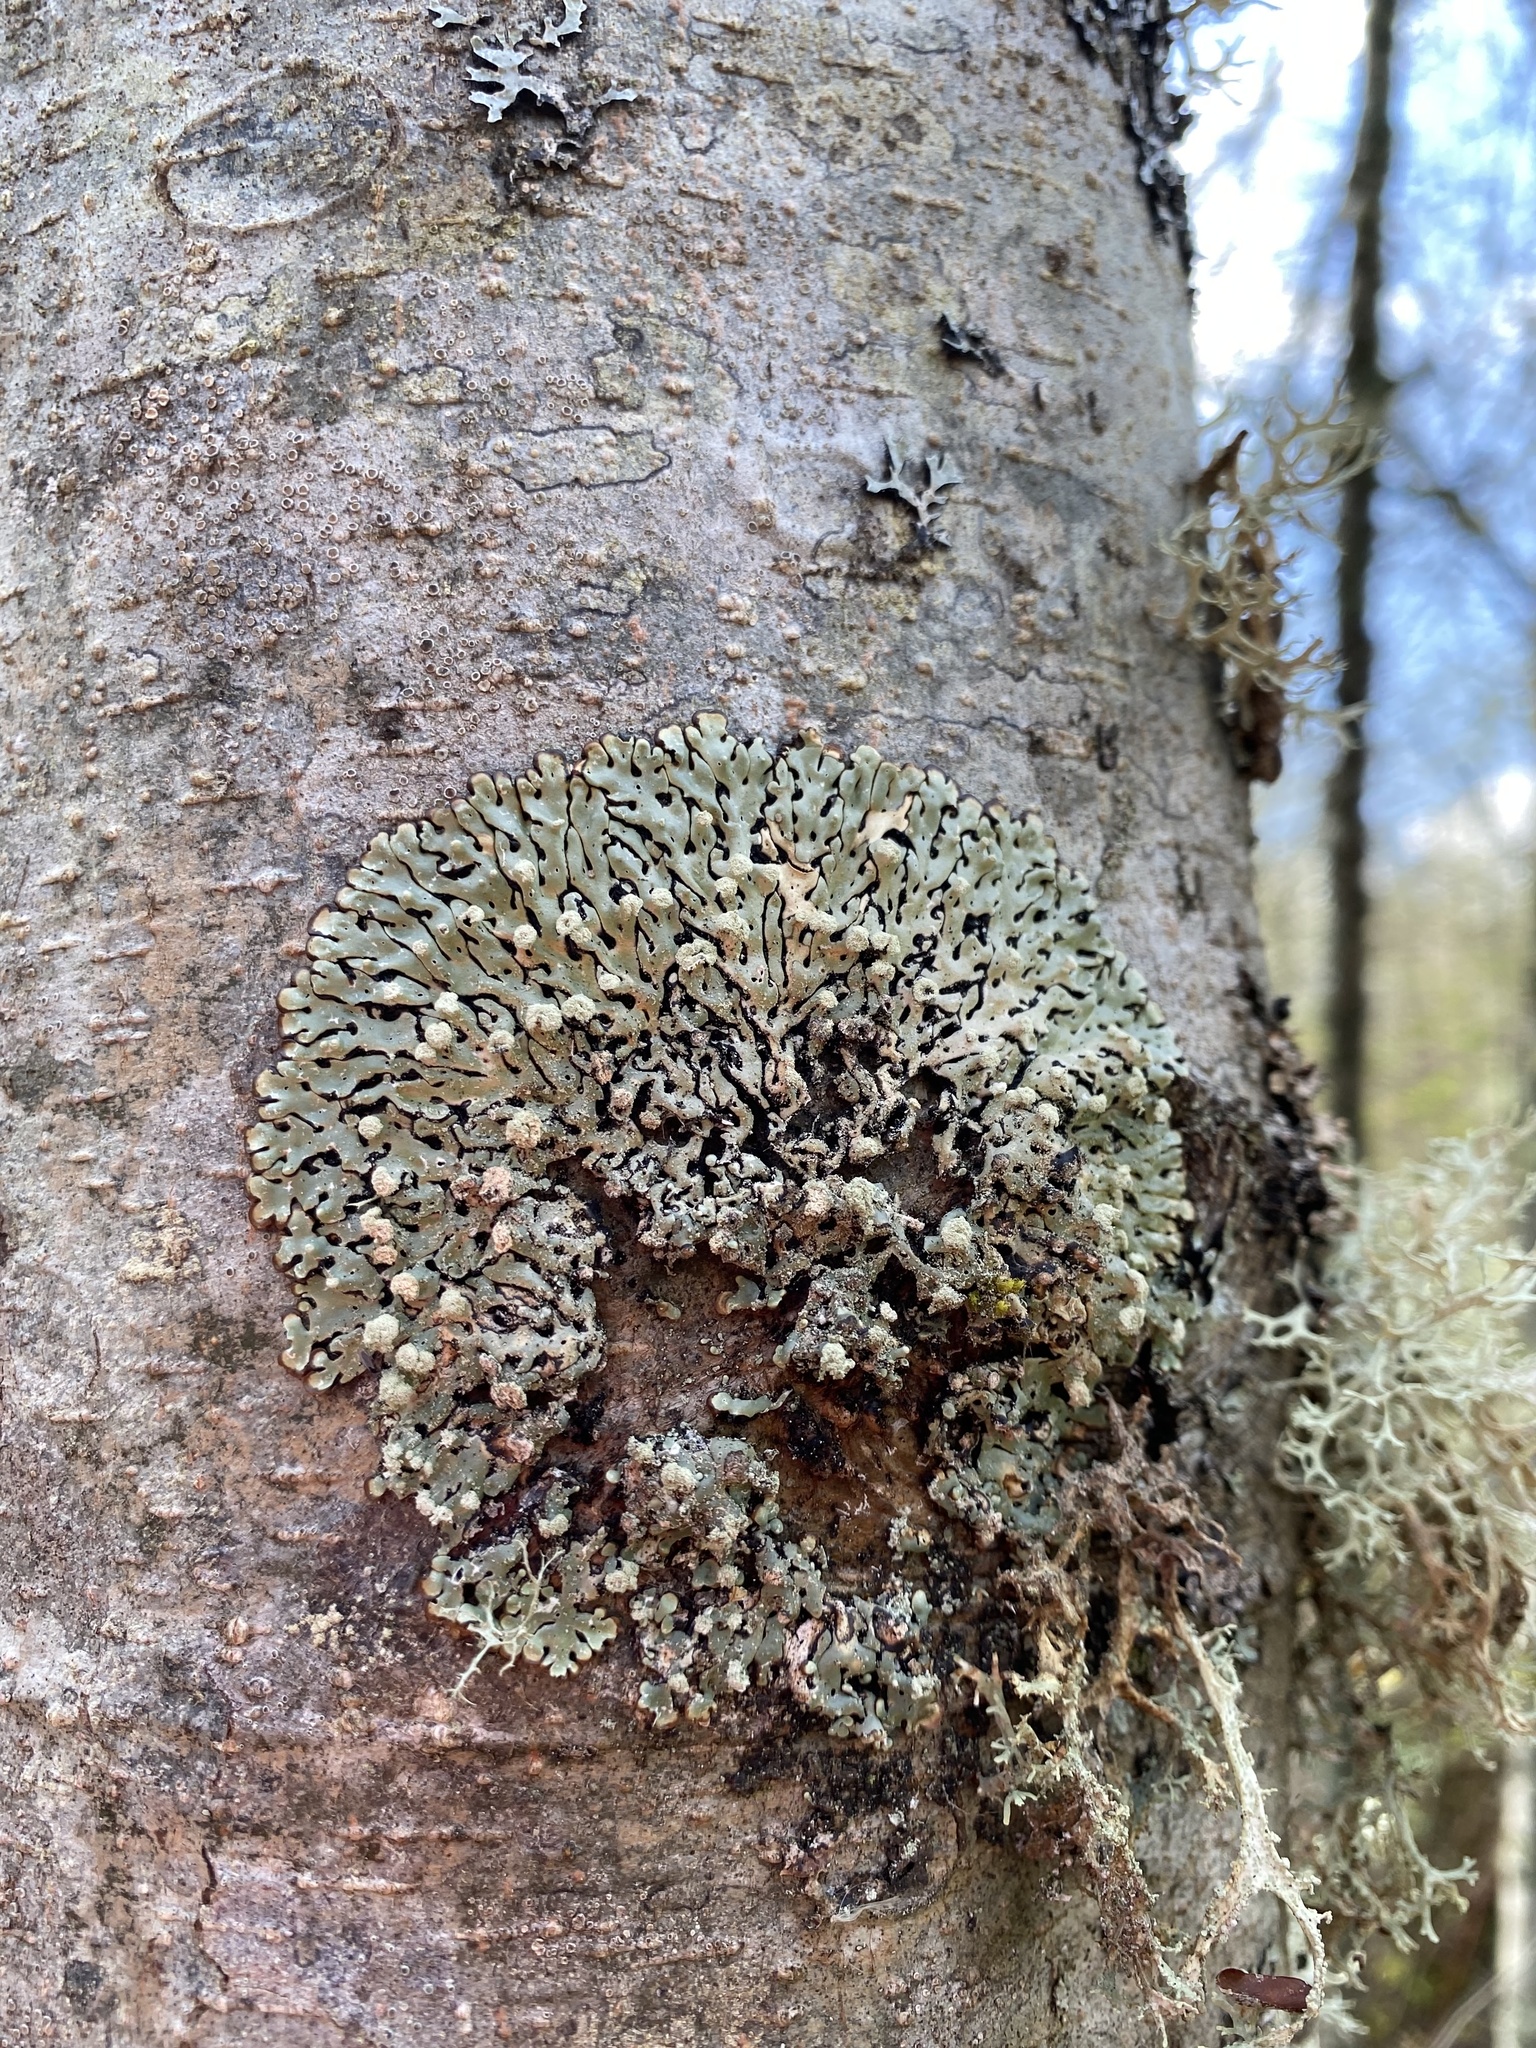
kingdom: Fungi
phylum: Ascomycota
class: Lecanoromycetes
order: Lecanorales
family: Parmeliaceae
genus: Menegazzia
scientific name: Menegazzia terebrata
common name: Magic treeflute lichen
